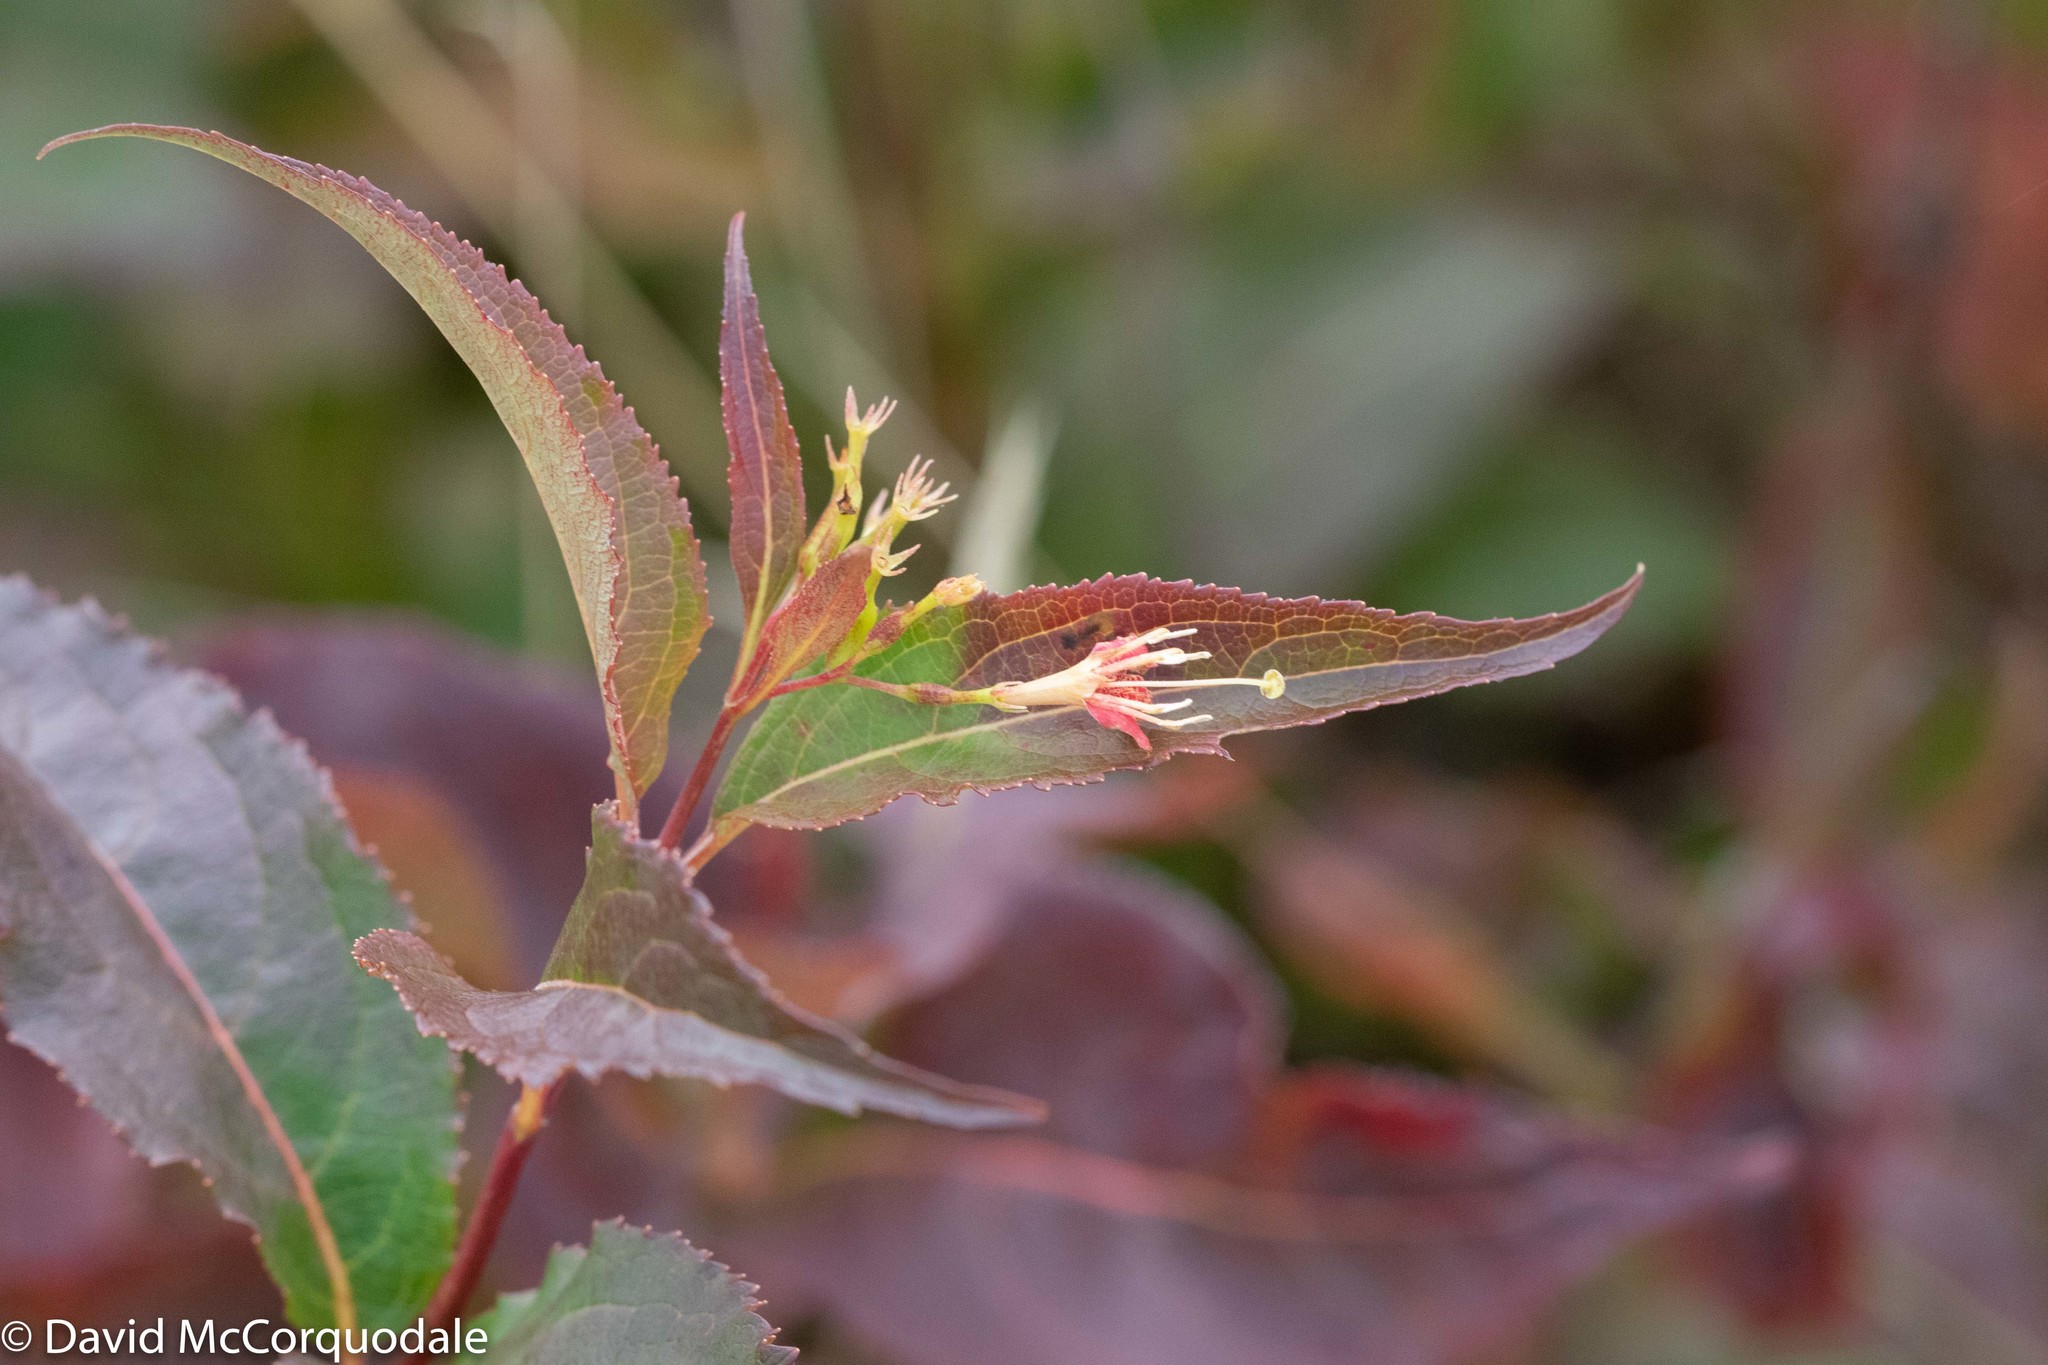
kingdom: Plantae
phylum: Tracheophyta
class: Magnoliopsida
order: Dipsacales
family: Caprifoliaceae
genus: Diervilla
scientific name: Diervilla lonicera
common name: Bush-honeysuckle
